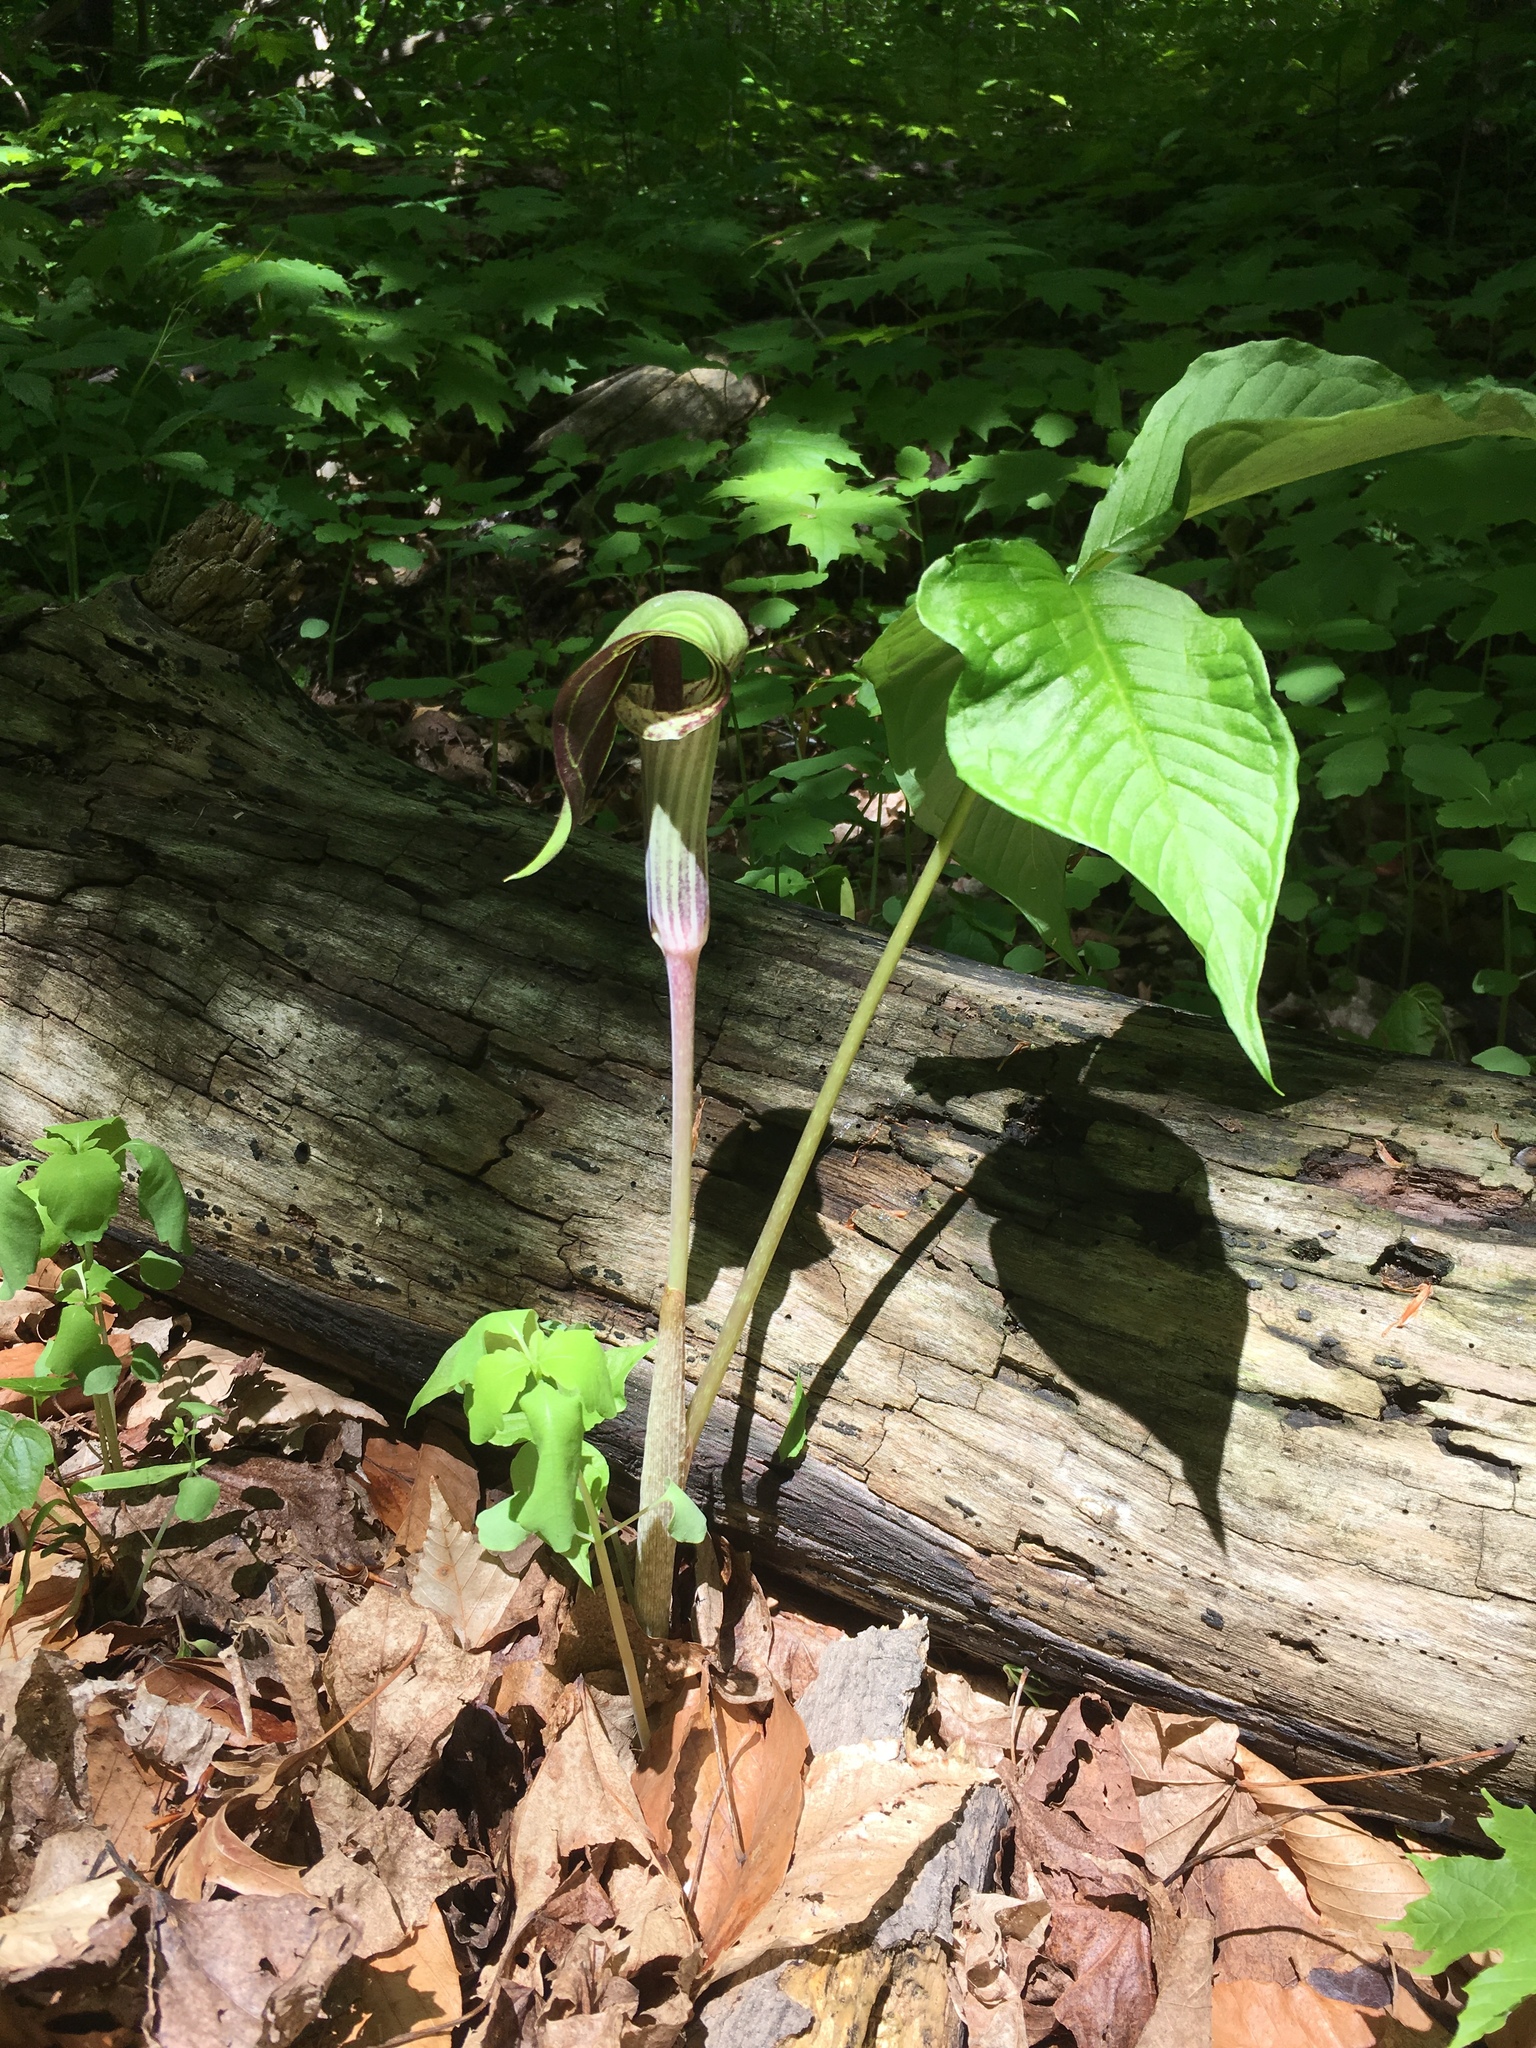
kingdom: Plantae
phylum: Tracheophyta
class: Liliopsida
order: Alismatales
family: Araceae
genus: Arisaema
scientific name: Arisaema triphyllum
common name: Jack-in-the-pulpit
